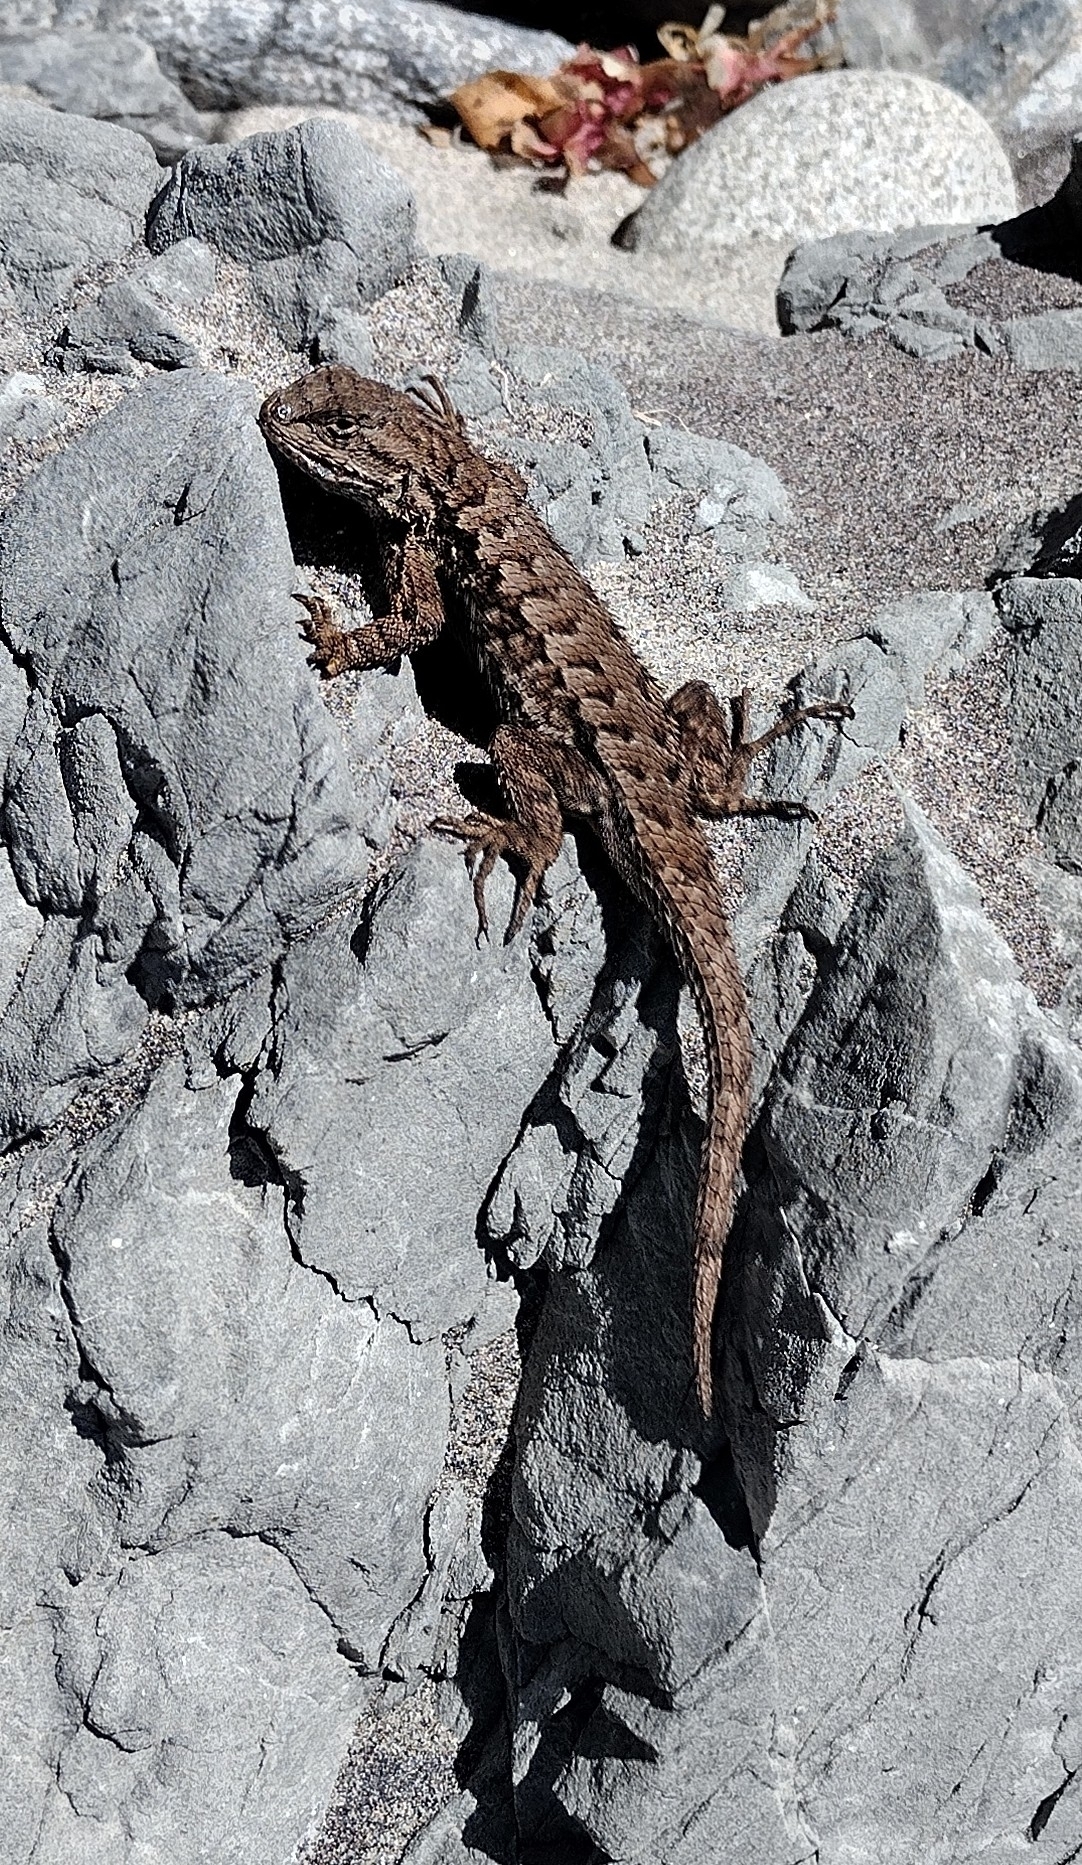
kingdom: Animalia
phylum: Chordata
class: Squamata
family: Phrynosomatidae
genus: Sceloporus
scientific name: Sceloporus occidentalis
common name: Western fence lizard
